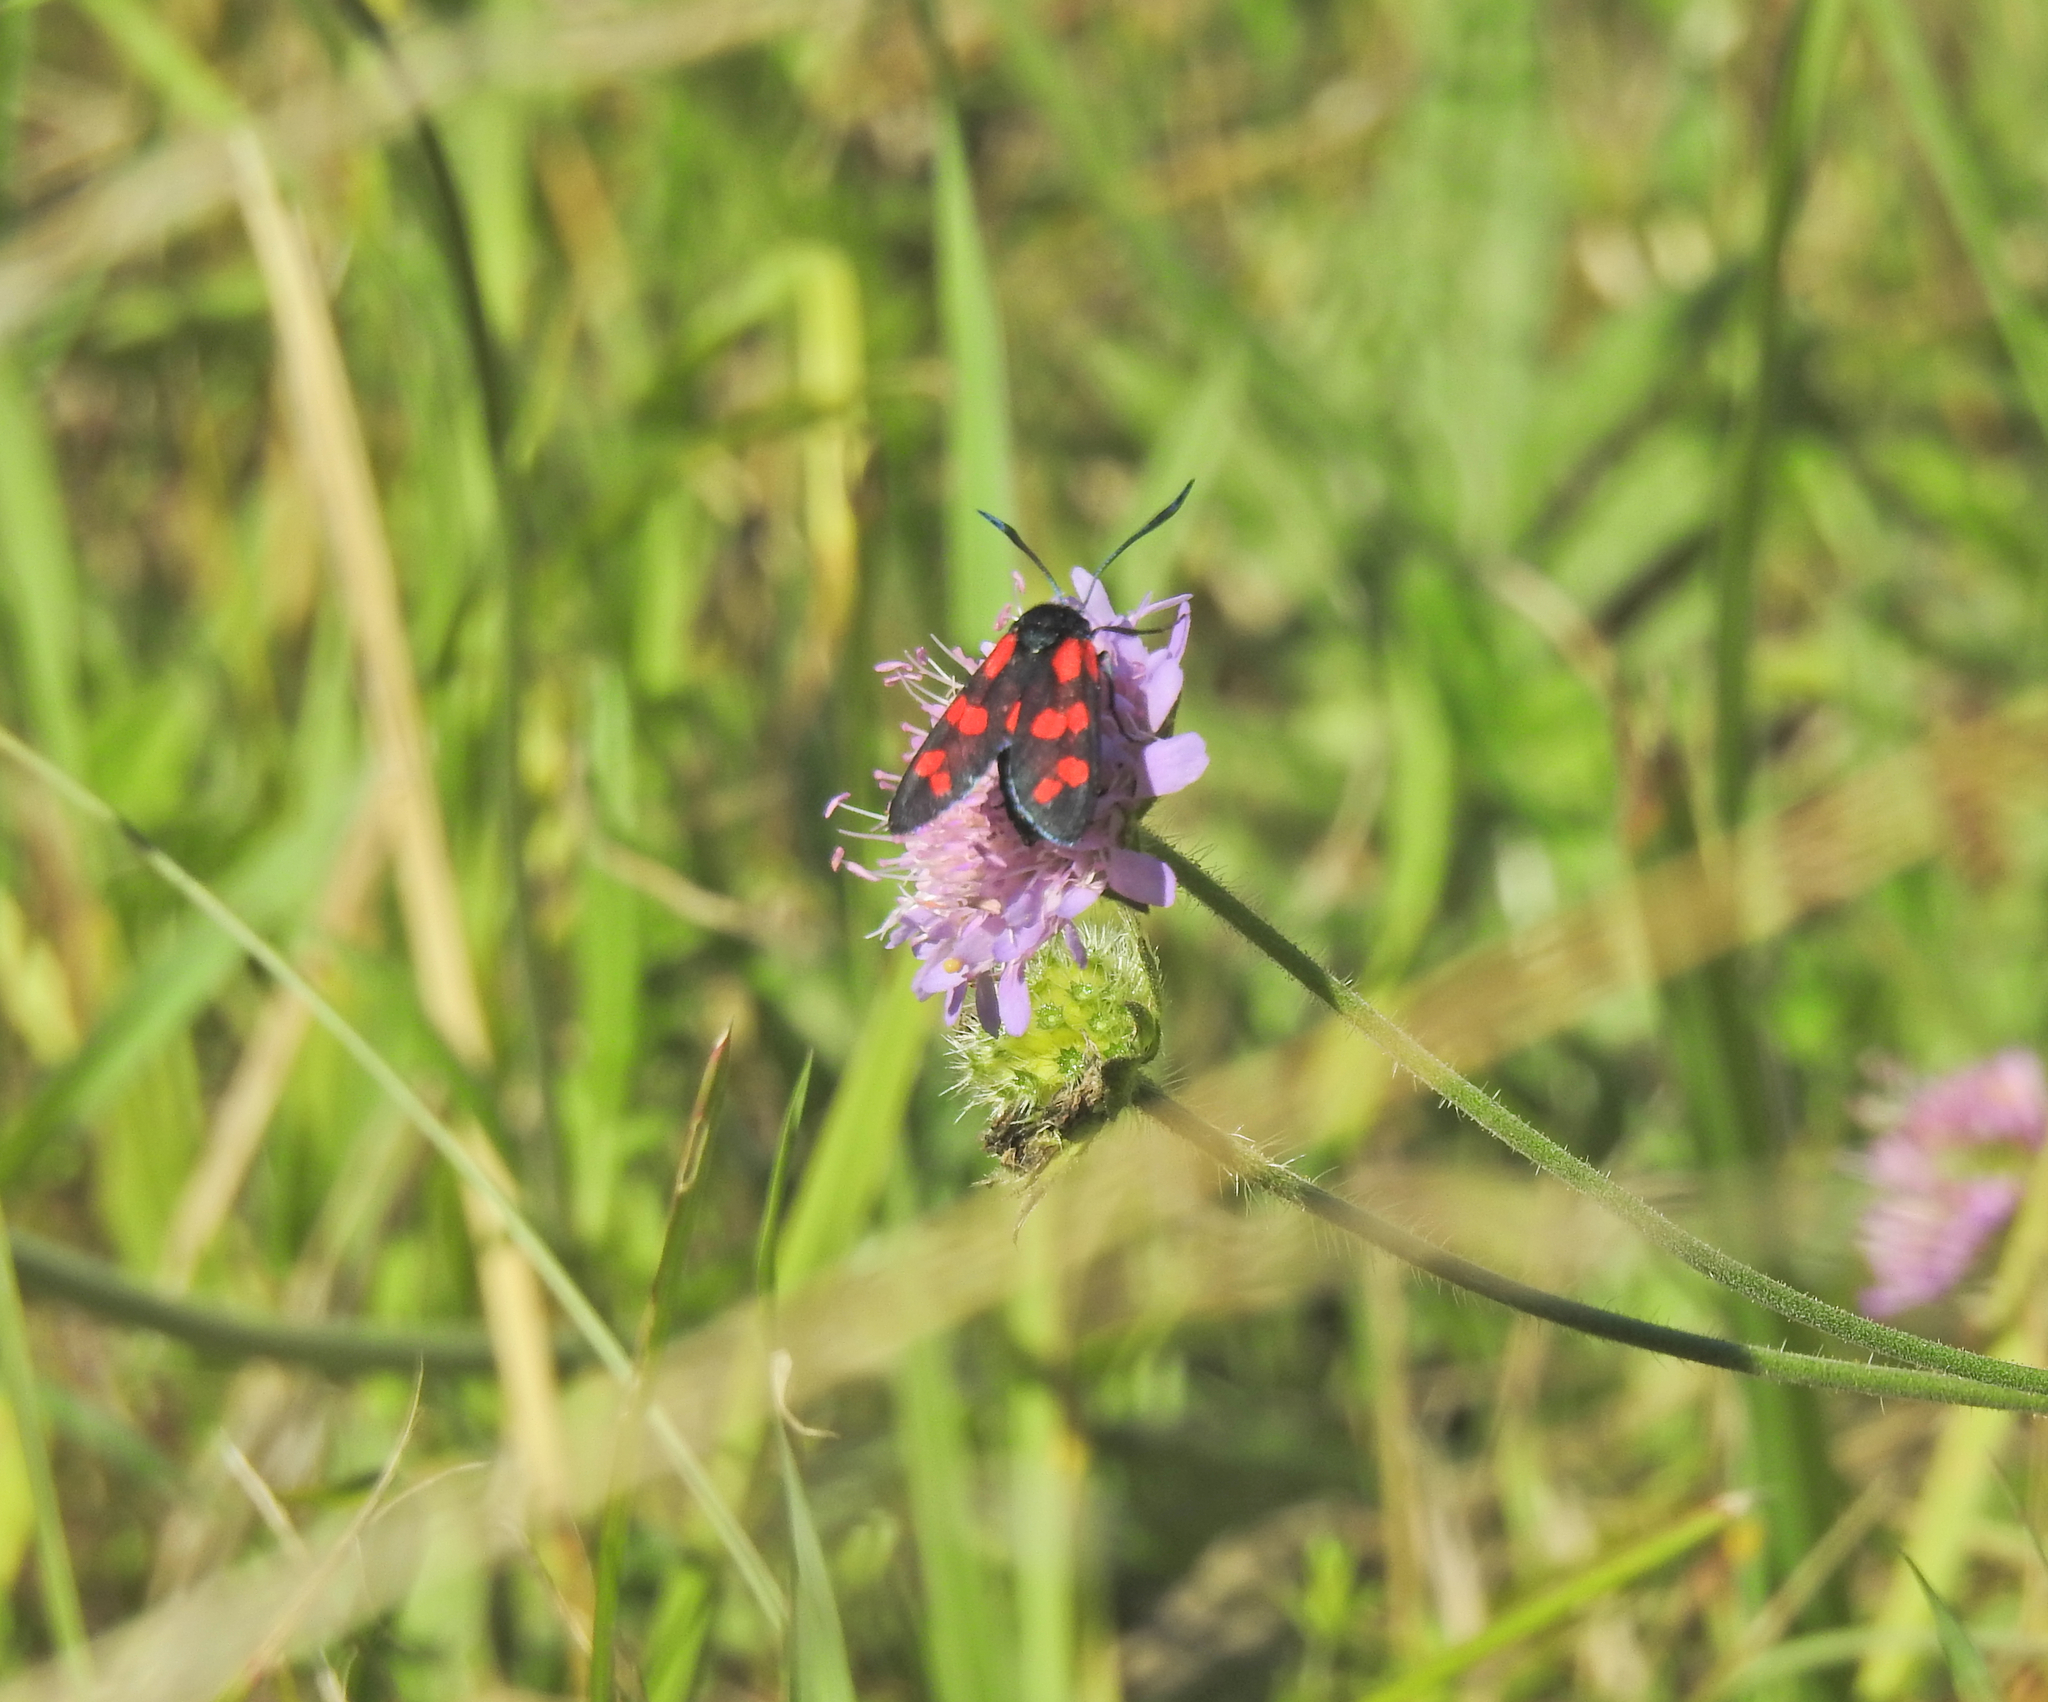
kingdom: Animalia
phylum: Arthropoda
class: Insecta
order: Lepidoptera
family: Zygaenidae
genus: Zygaena
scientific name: Zygaena filipendulae
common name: Six-spot burnet
